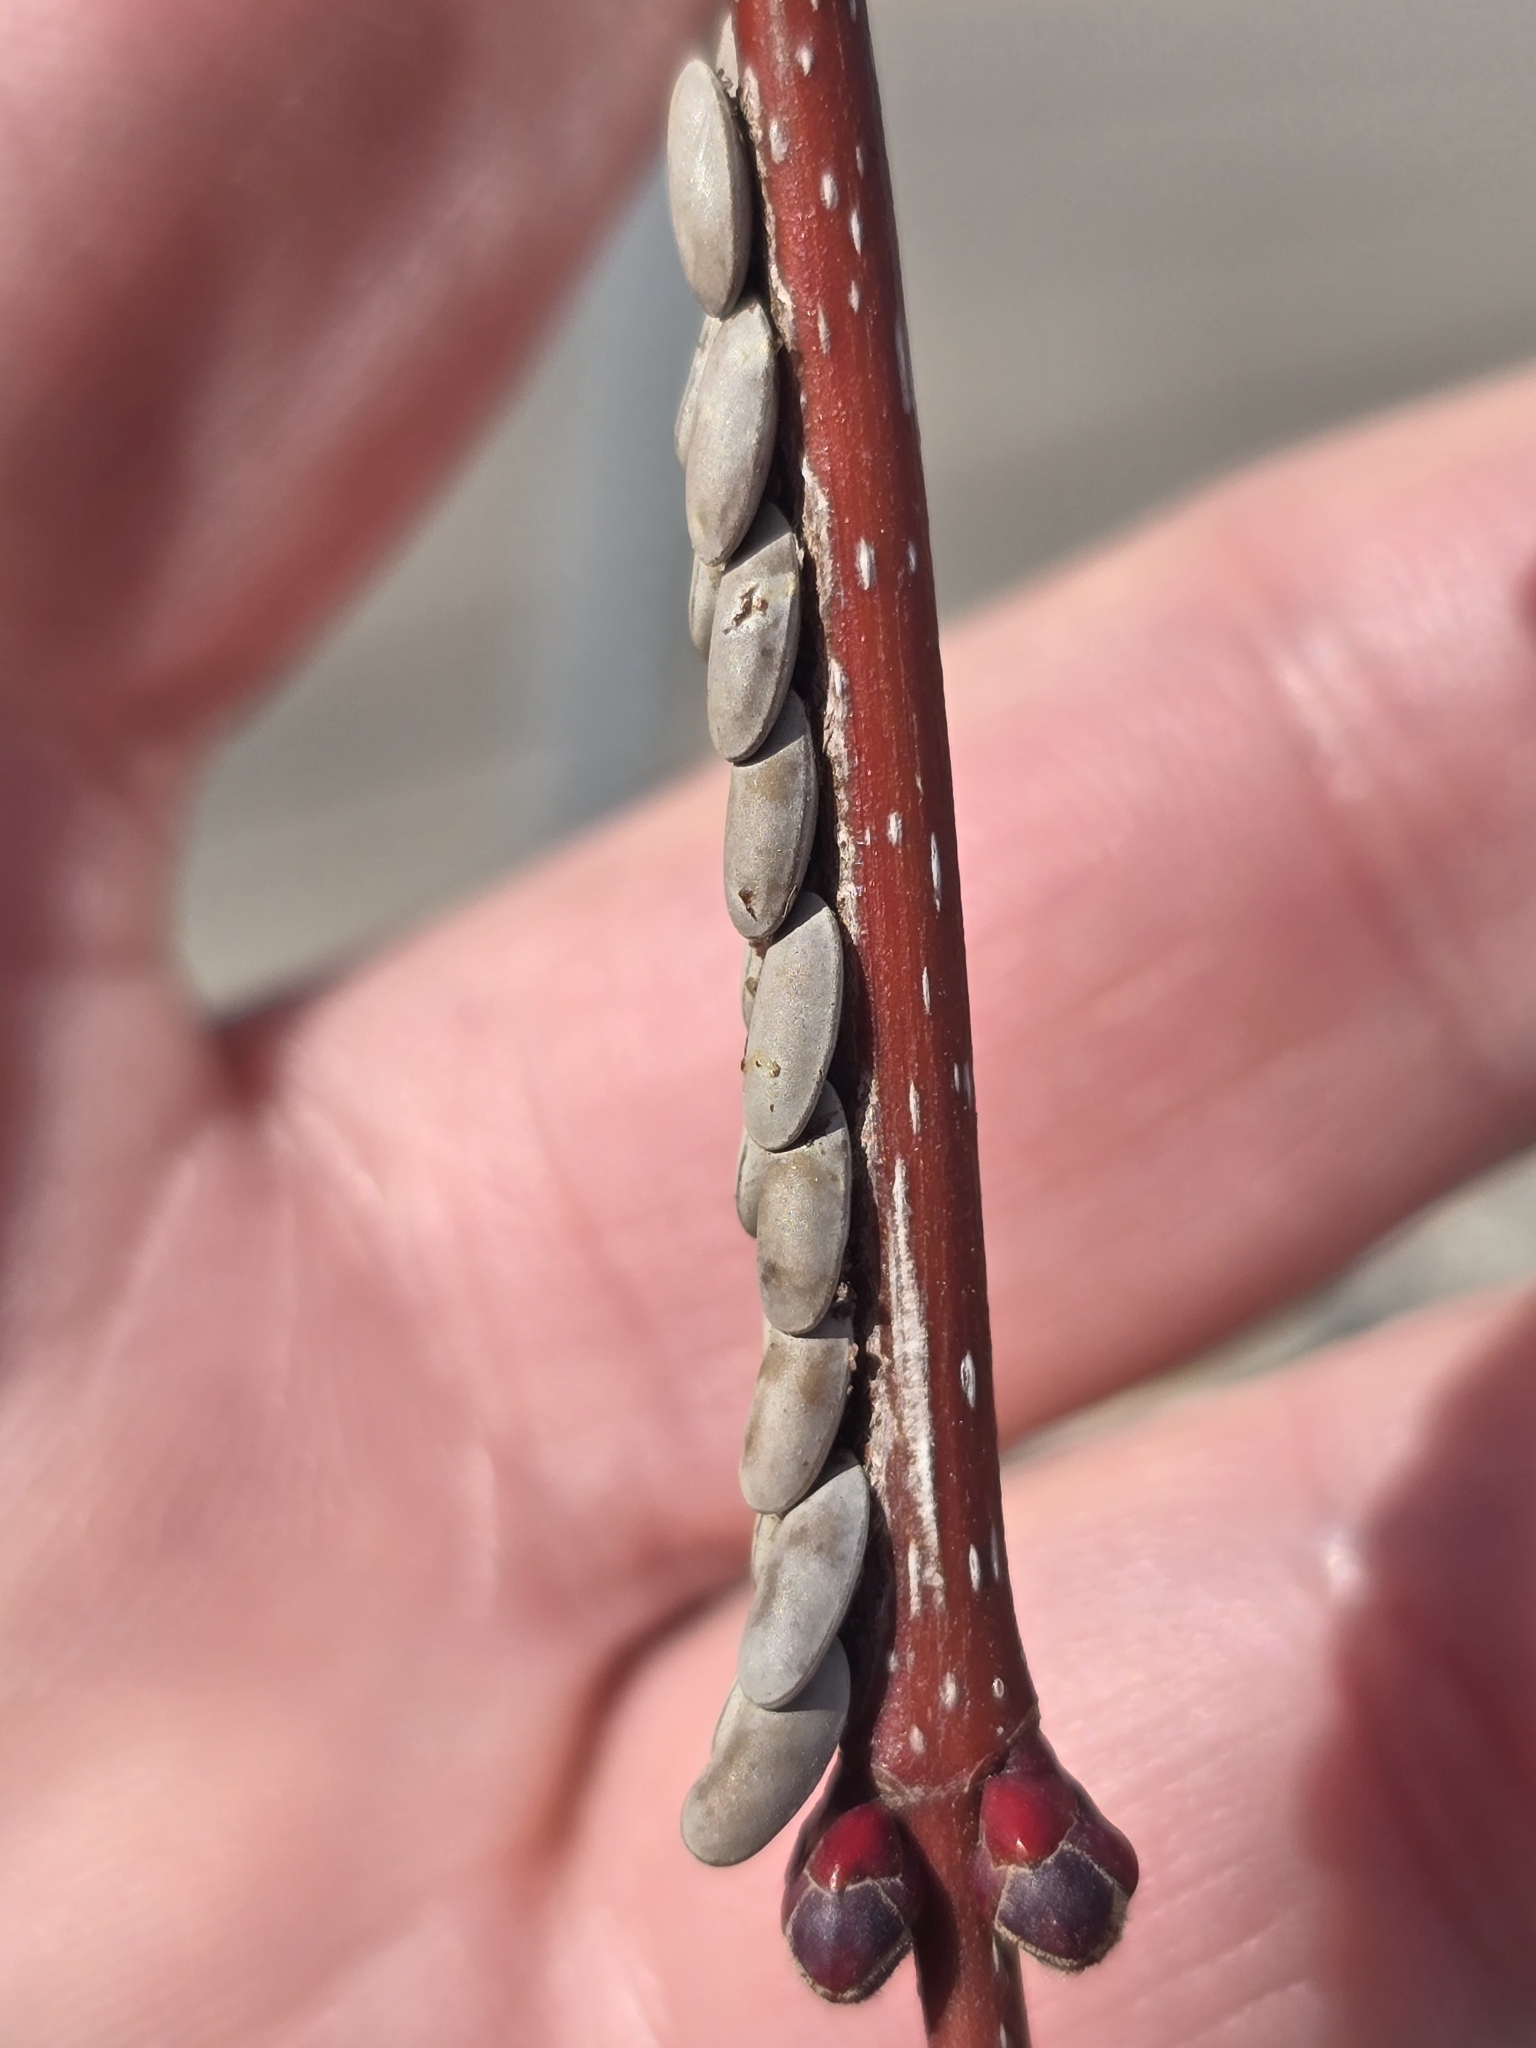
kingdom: Animalia
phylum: Arthropoda
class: Insecta
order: Orthoptera
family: Tettigoniidae
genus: Microcentrum
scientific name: Microcentrum rhombifolium
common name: Broad-winged katydid
